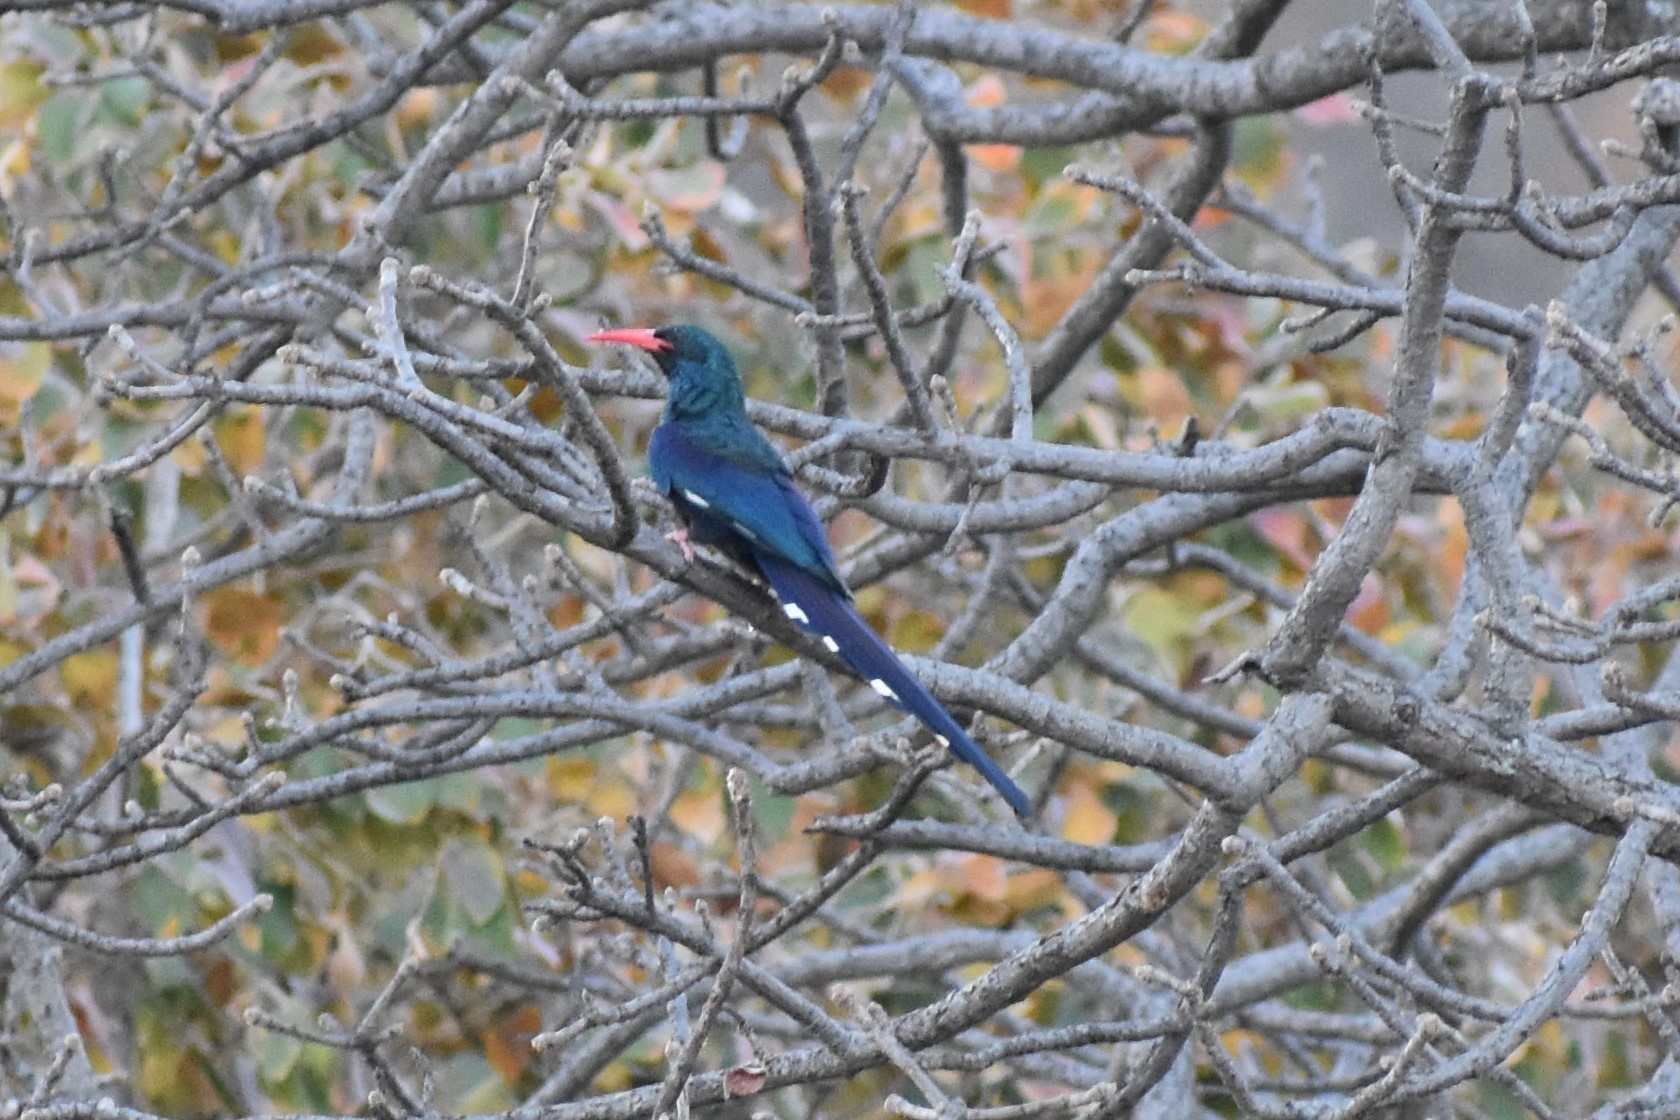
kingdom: Animalia
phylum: Chordata
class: Aves
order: Bucerotiformes
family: Phoeniculidae
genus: Phoeniculus
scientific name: Phoeniculus purpureus
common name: Green woodhoopoe
